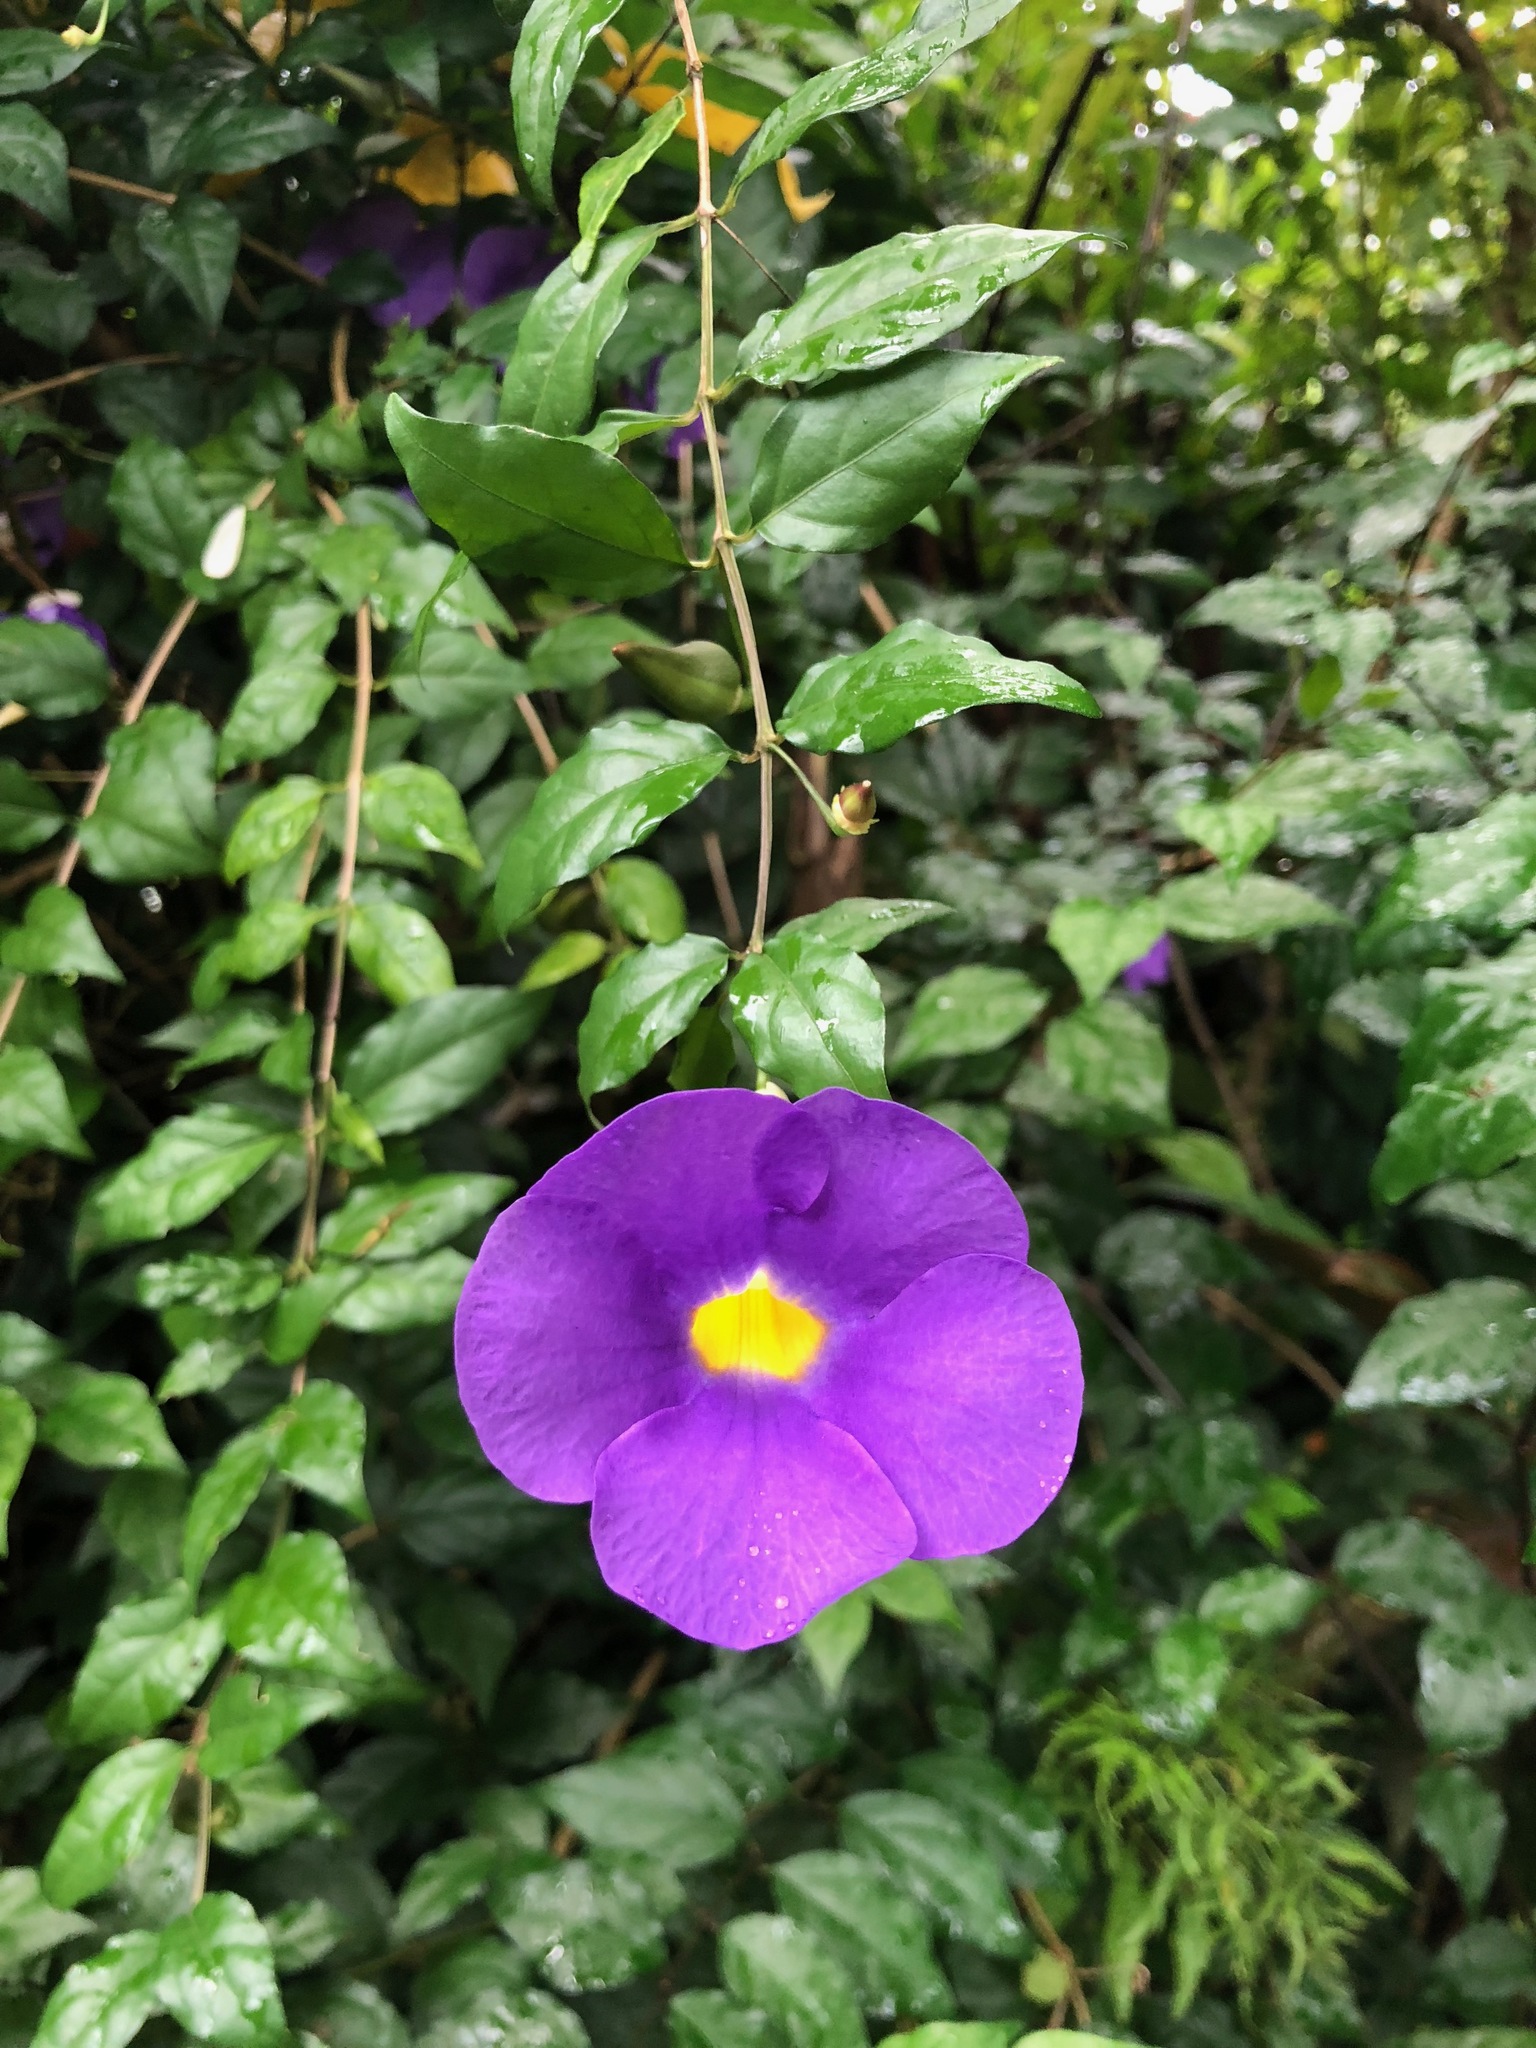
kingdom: Plantae
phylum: Tracheophyta
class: Magnoliopsida
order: Lamiales
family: Acanthaceae
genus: Thunbergia
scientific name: Thunbergia erecta
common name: Bush clockvine
